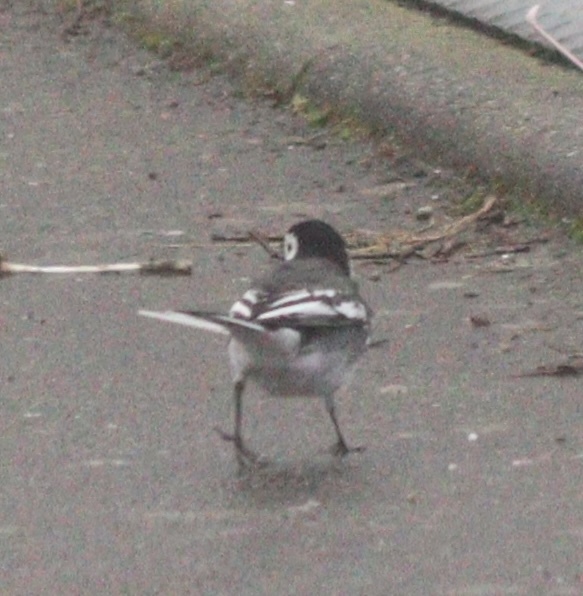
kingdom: Animalia
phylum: Chordata
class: Aves
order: Passeriformes
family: Motacillidae
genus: Motacilla
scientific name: Motacilla alba
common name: White wagtail
